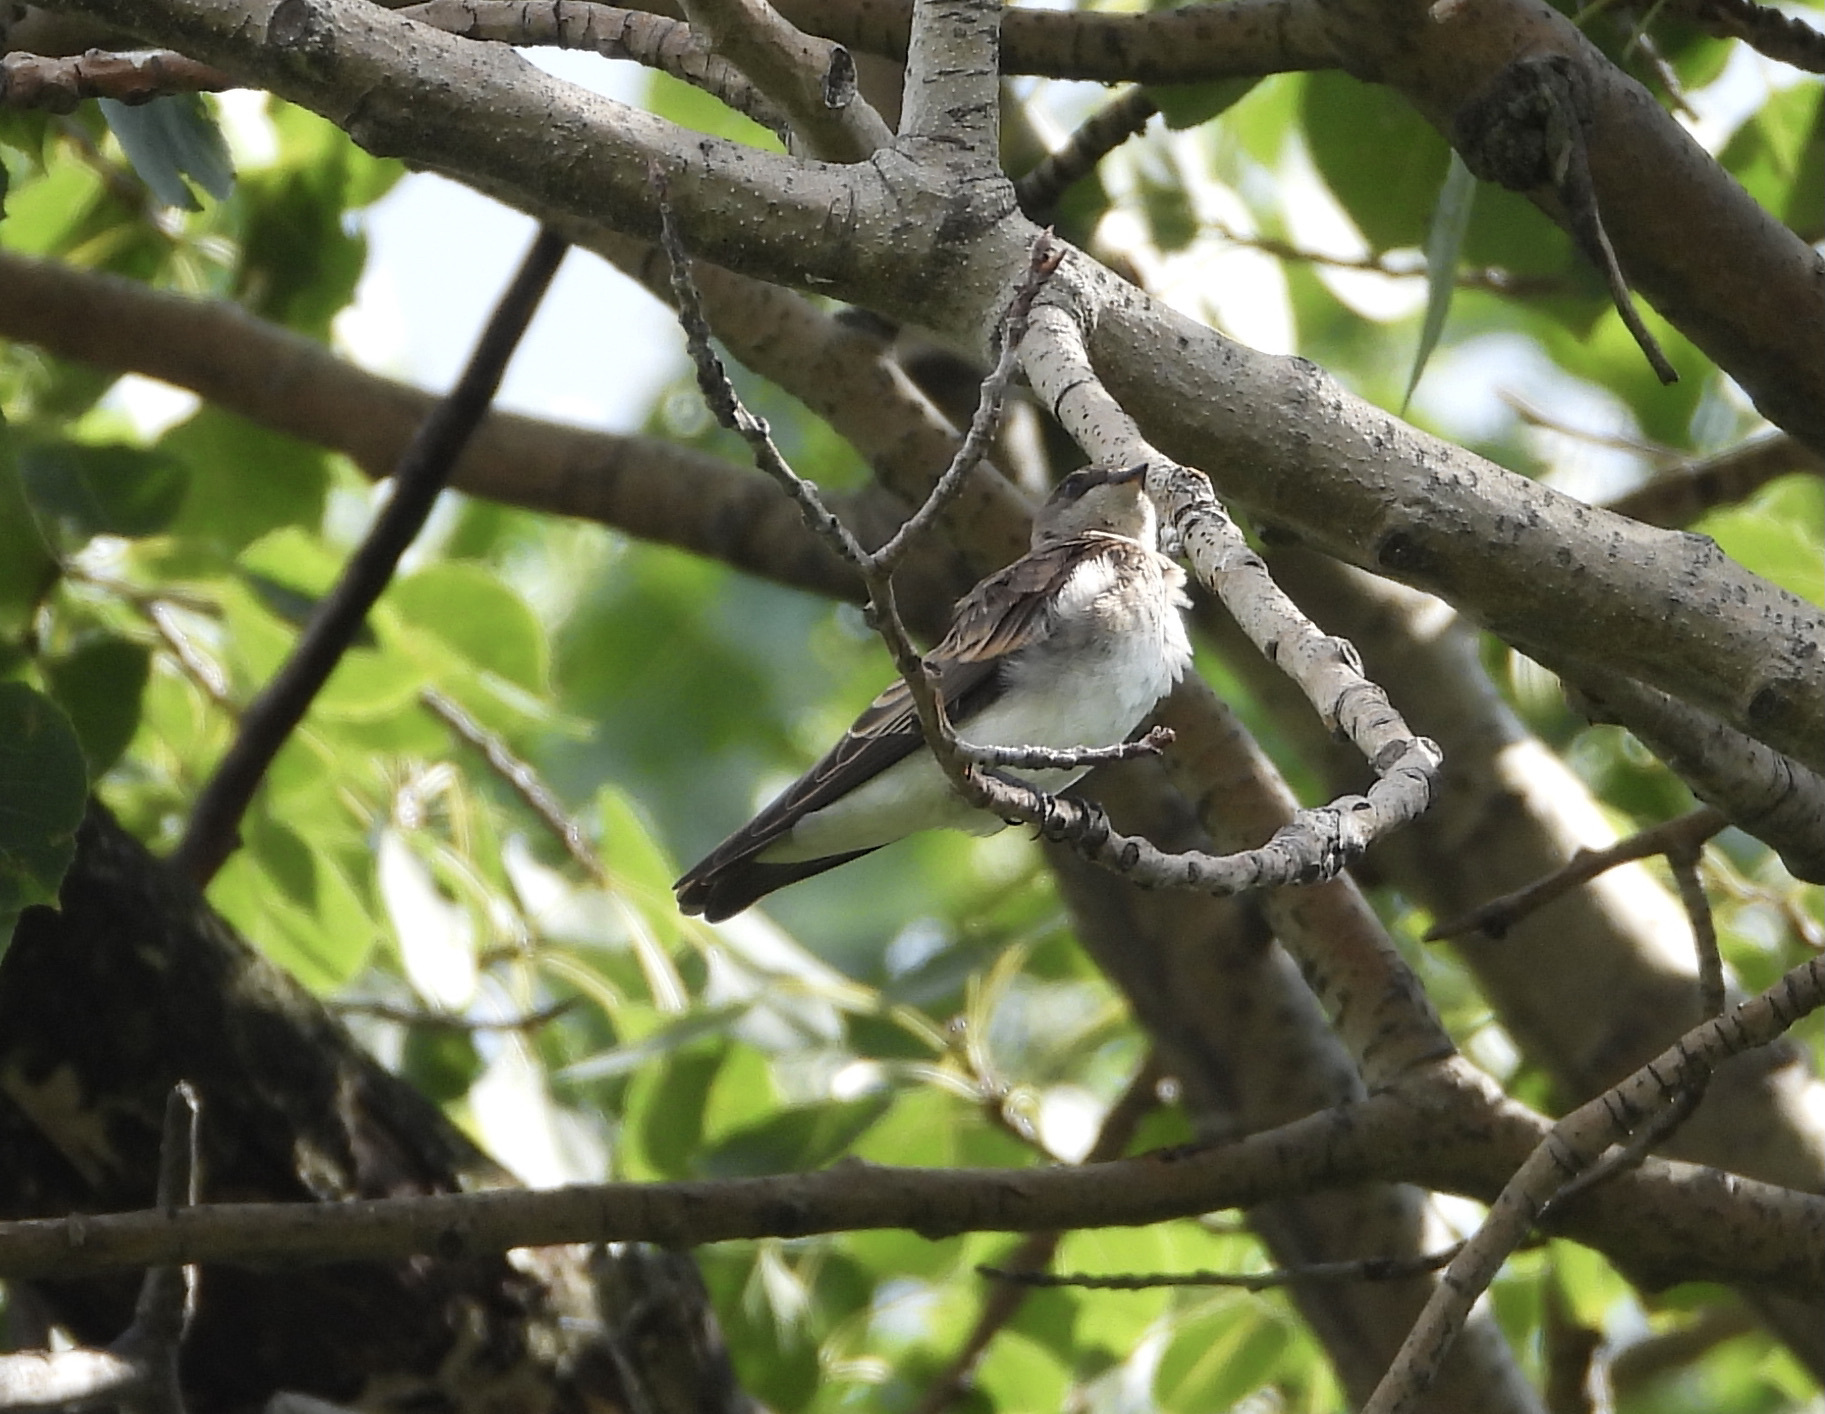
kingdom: Animalia
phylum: Chordata
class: Aves
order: Passeriformes
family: Hirundinidae
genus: Stelgidopteryx
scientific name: Stelgidopteryx serripennis
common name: Northern rough-winged swallow
